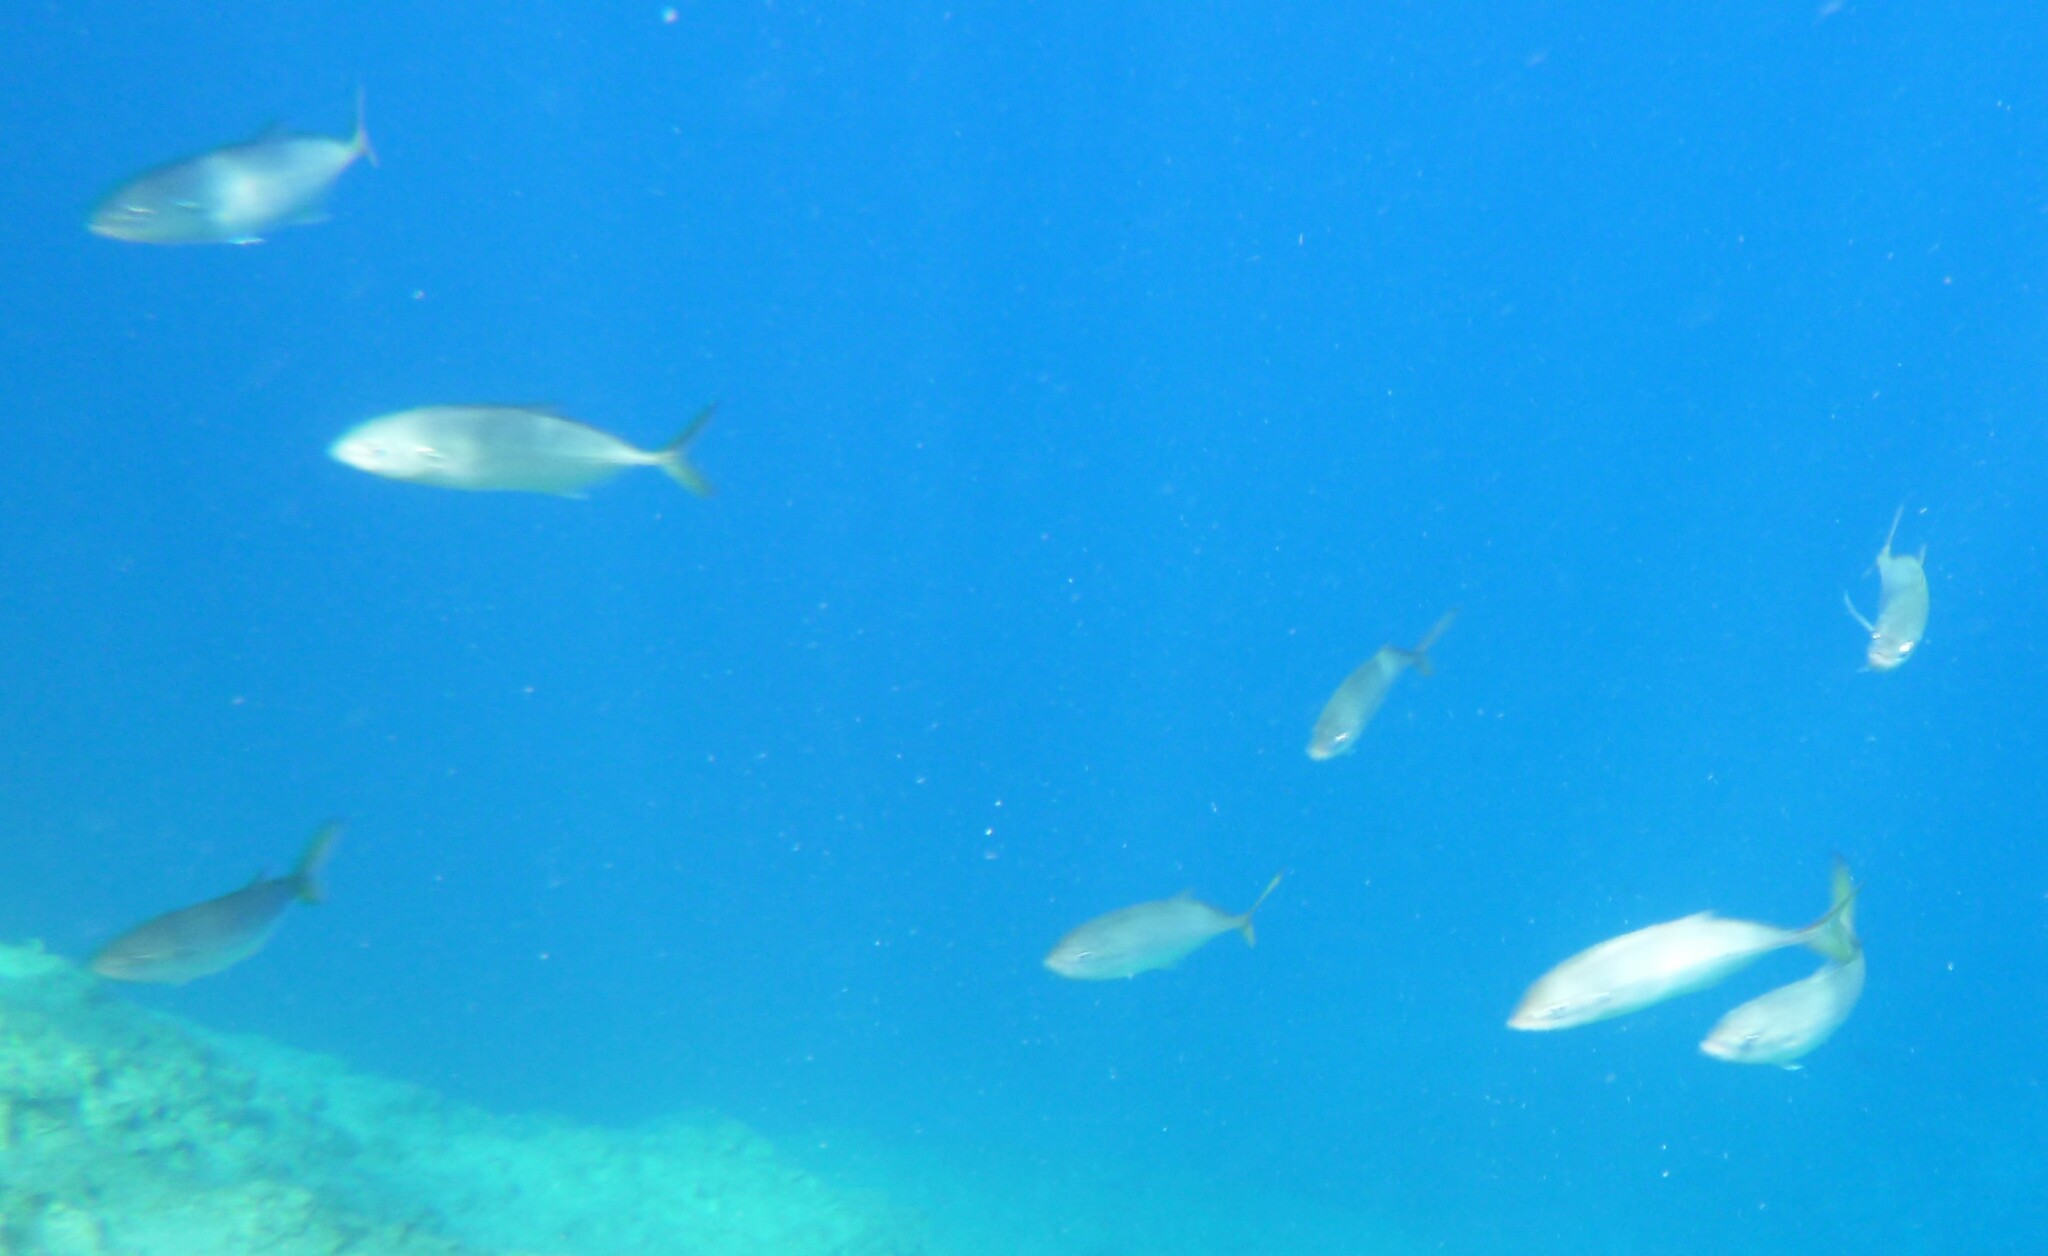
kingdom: Animalia
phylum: Chordata
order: Perciformes
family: Carangidae
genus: Caranx
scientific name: Caranx crysos
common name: Blue runner
